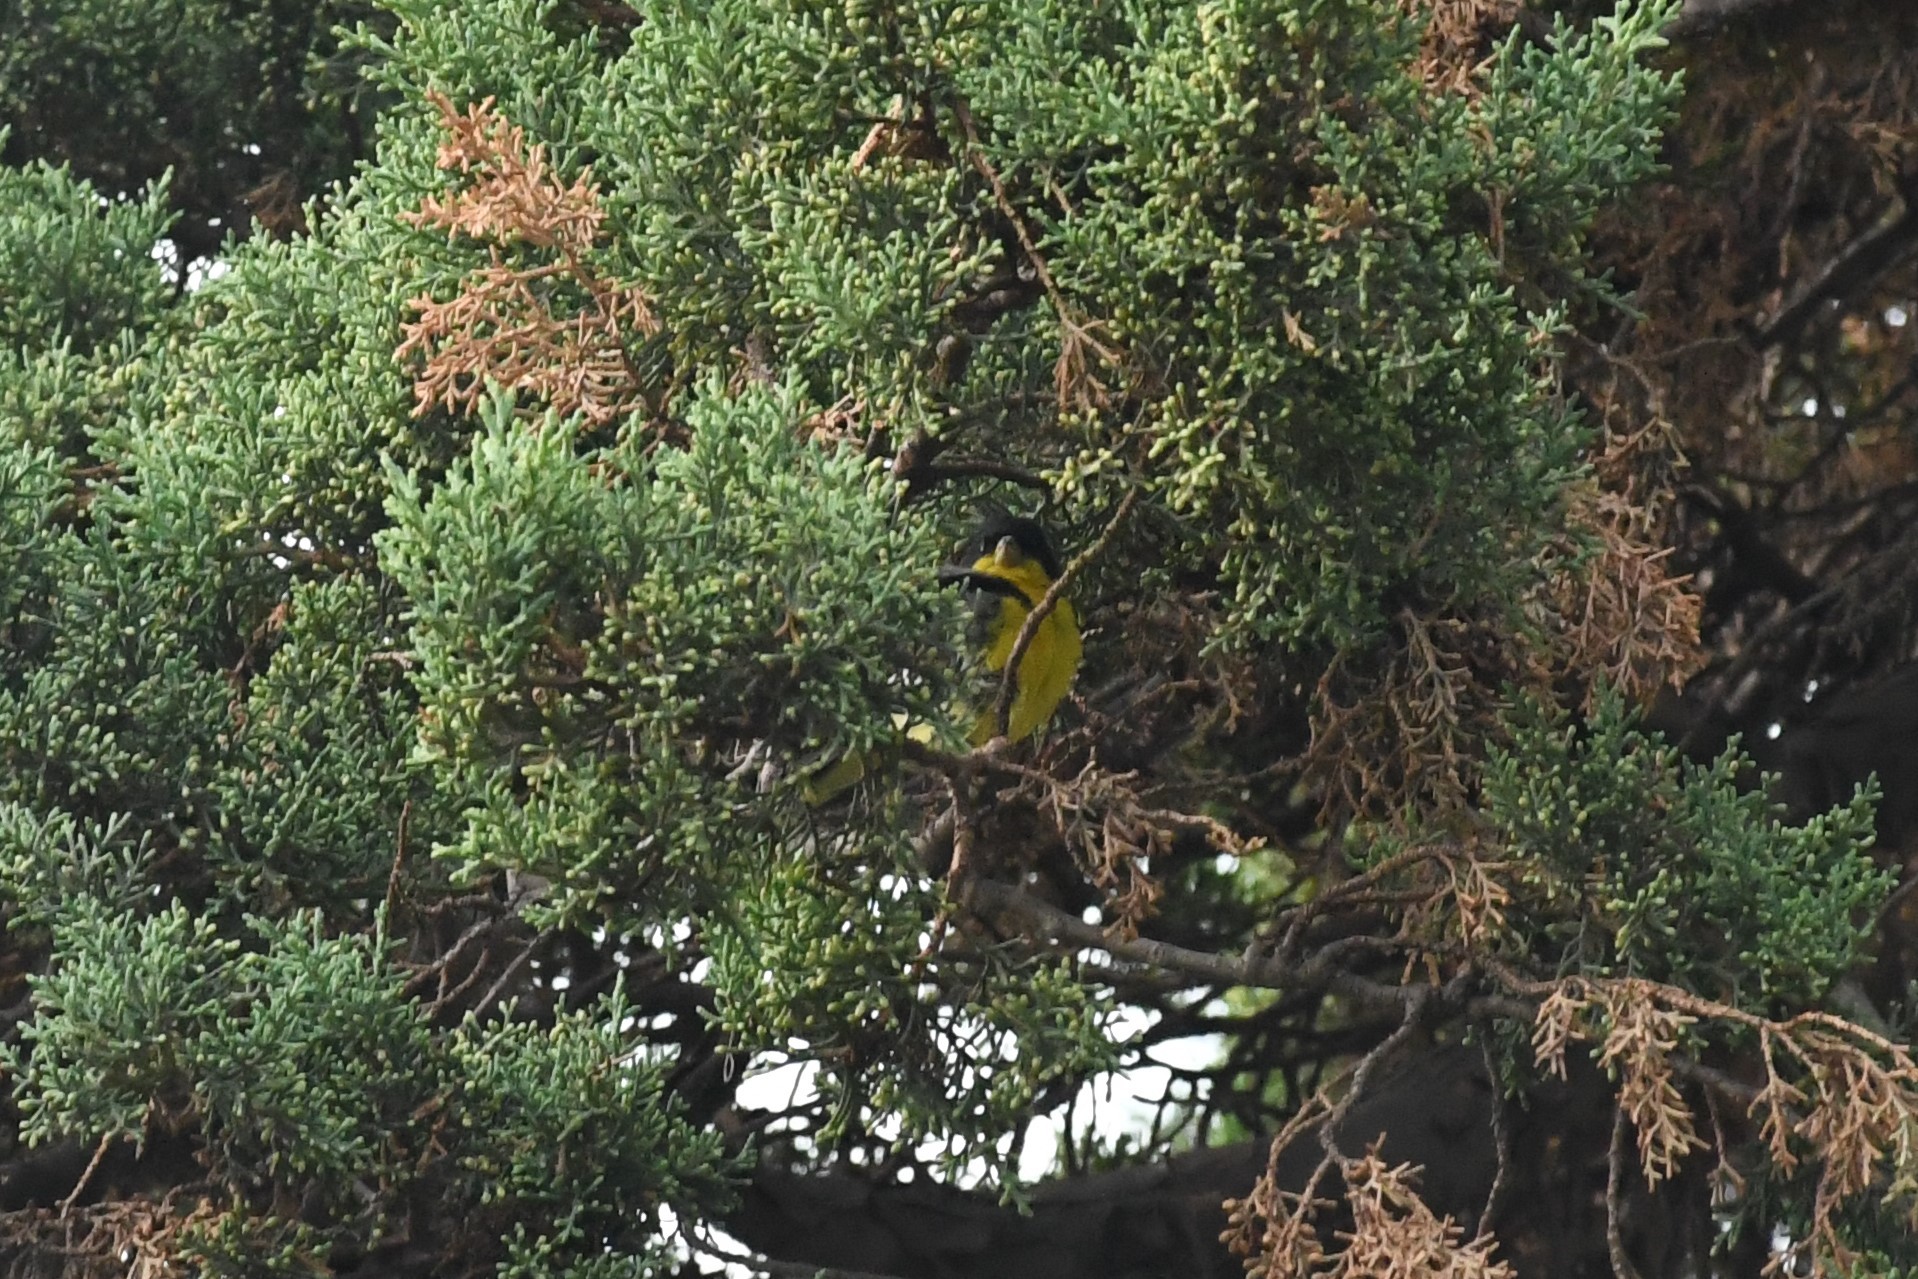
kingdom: Animalia
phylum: Chordata
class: Aves
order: Passeriformes
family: Fringillidae
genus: Spinus
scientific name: Spinus psaltria
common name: Lesser goldfinch
